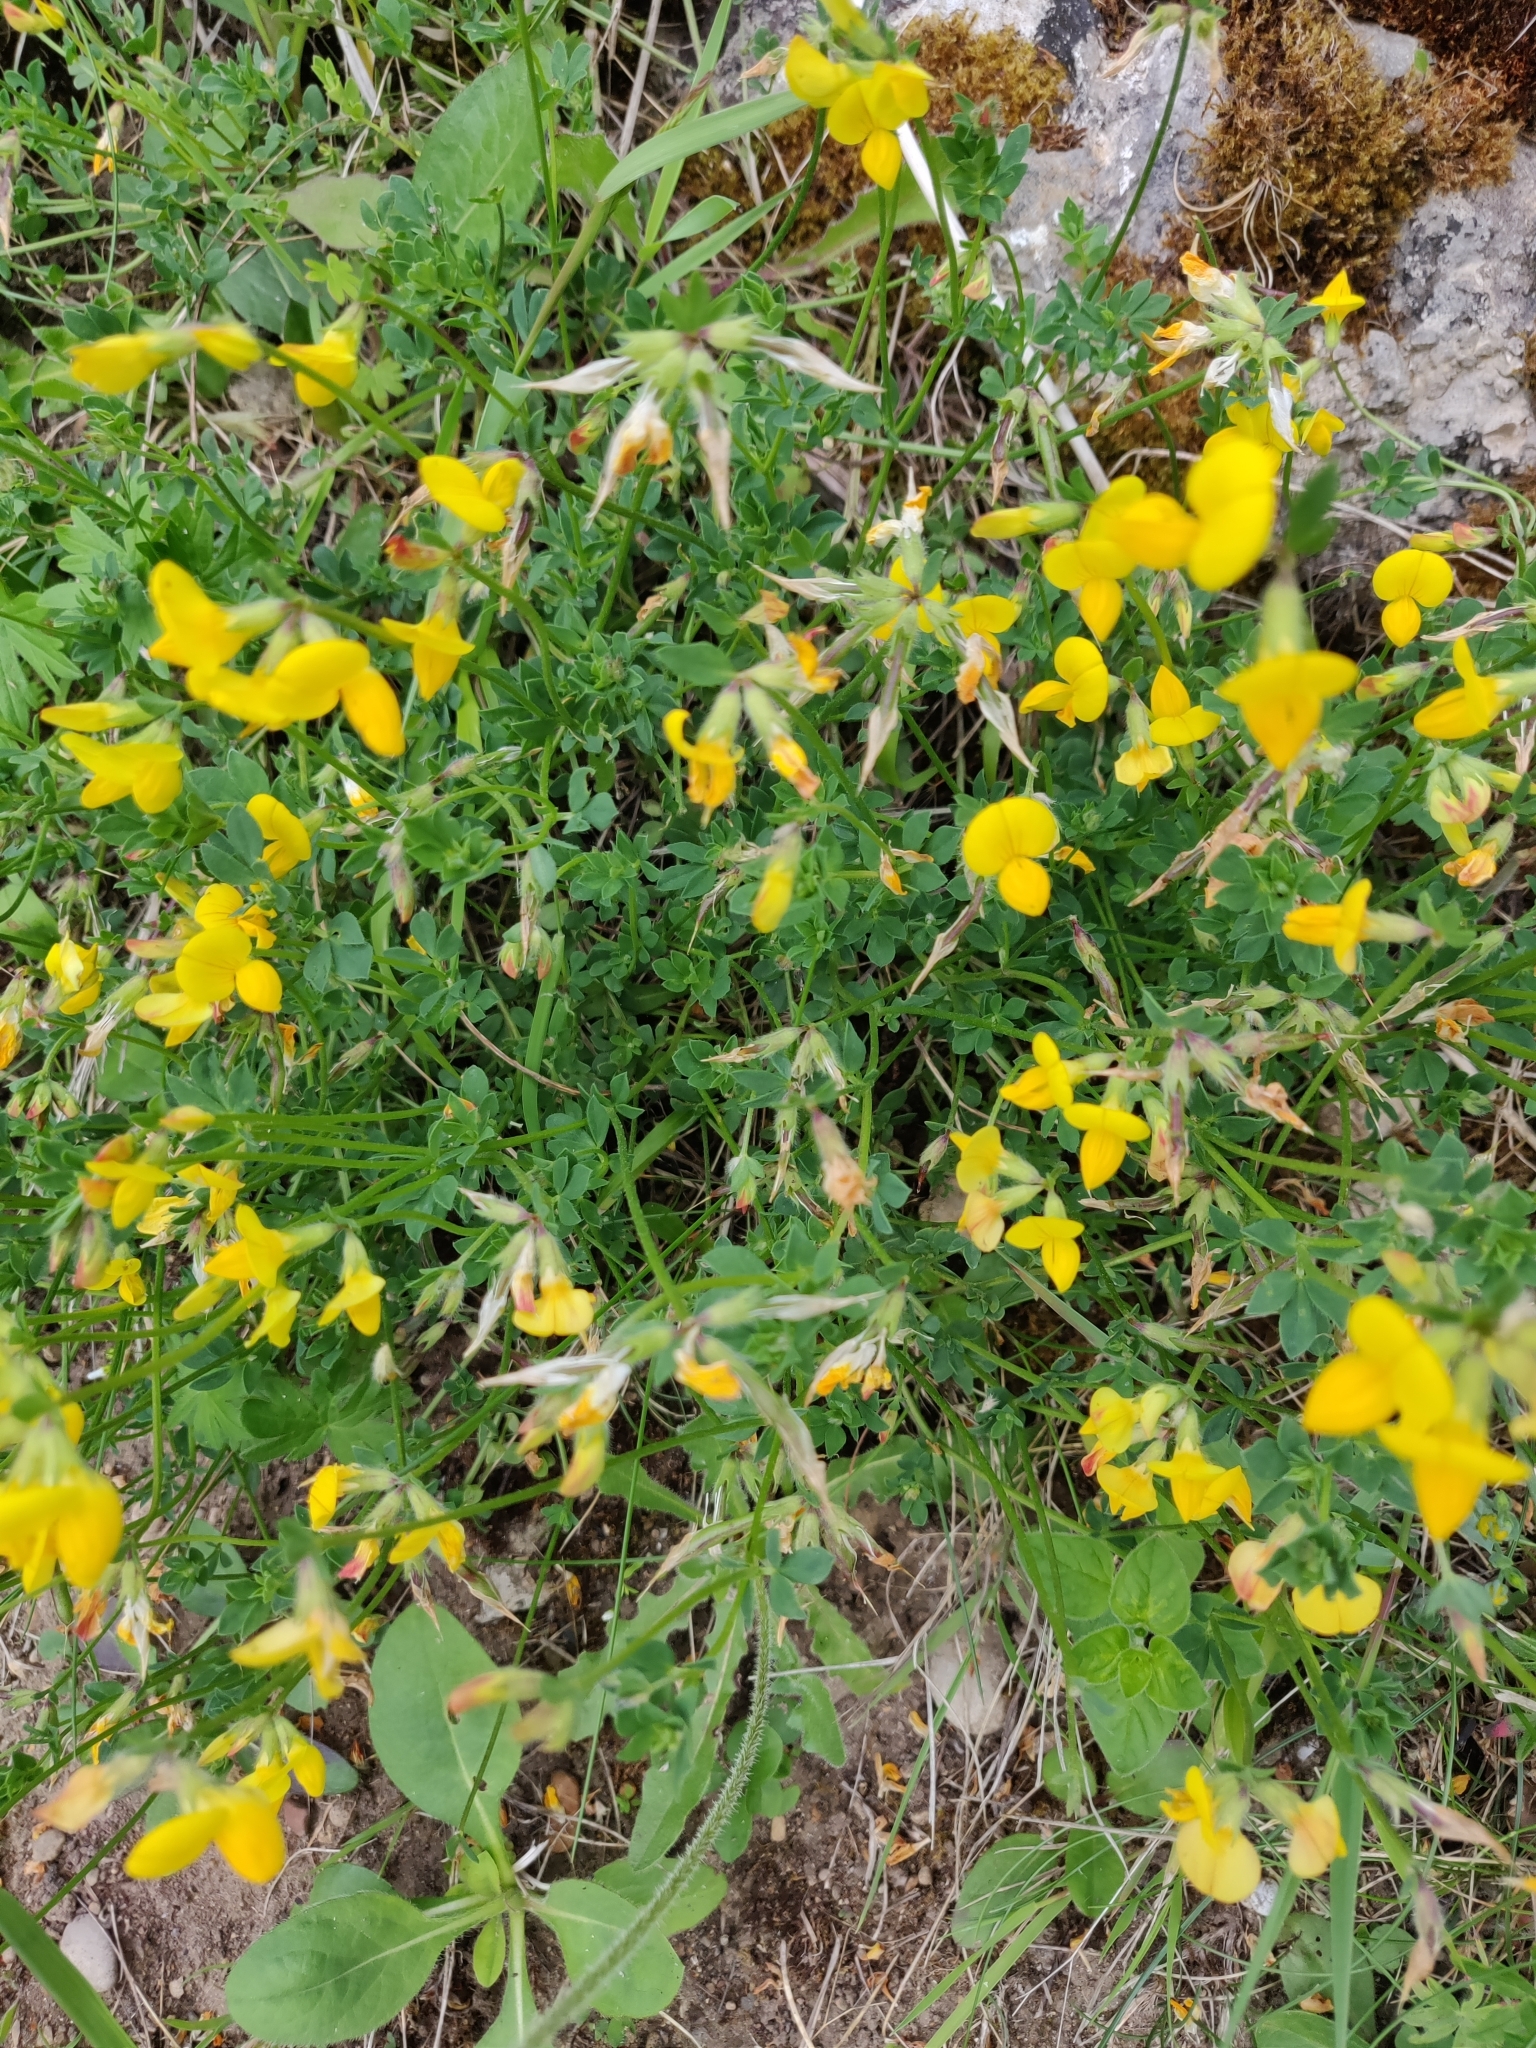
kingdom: Plantae
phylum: Tracheophyta
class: Magnoliopsida
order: Fabales
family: Fabaceae
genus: Lotus
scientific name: Lotus corniculatus
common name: Common bird's-foot-trefoil
